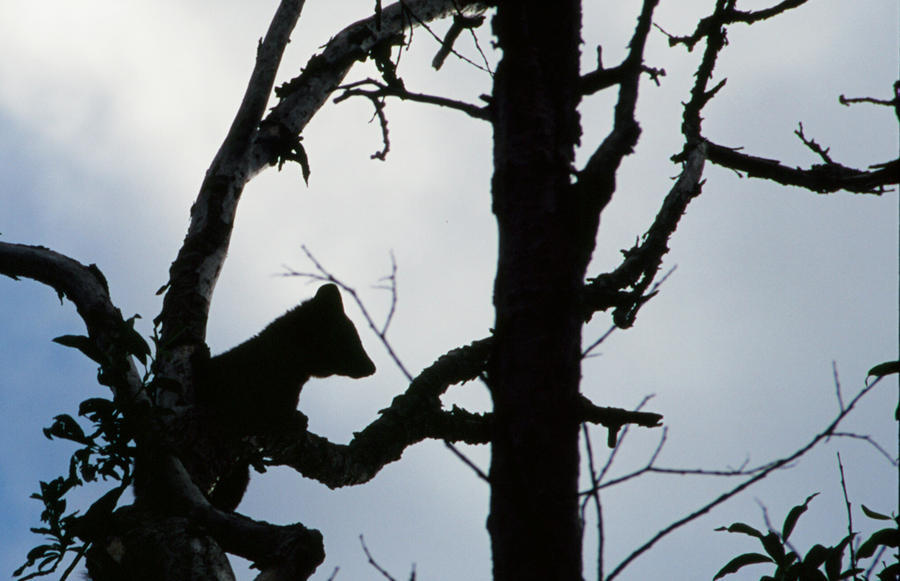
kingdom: Animalia
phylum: Chordata
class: Mammalia
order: Carnivora
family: Mustelidae
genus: Martes
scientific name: Martes americana
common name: American marten
